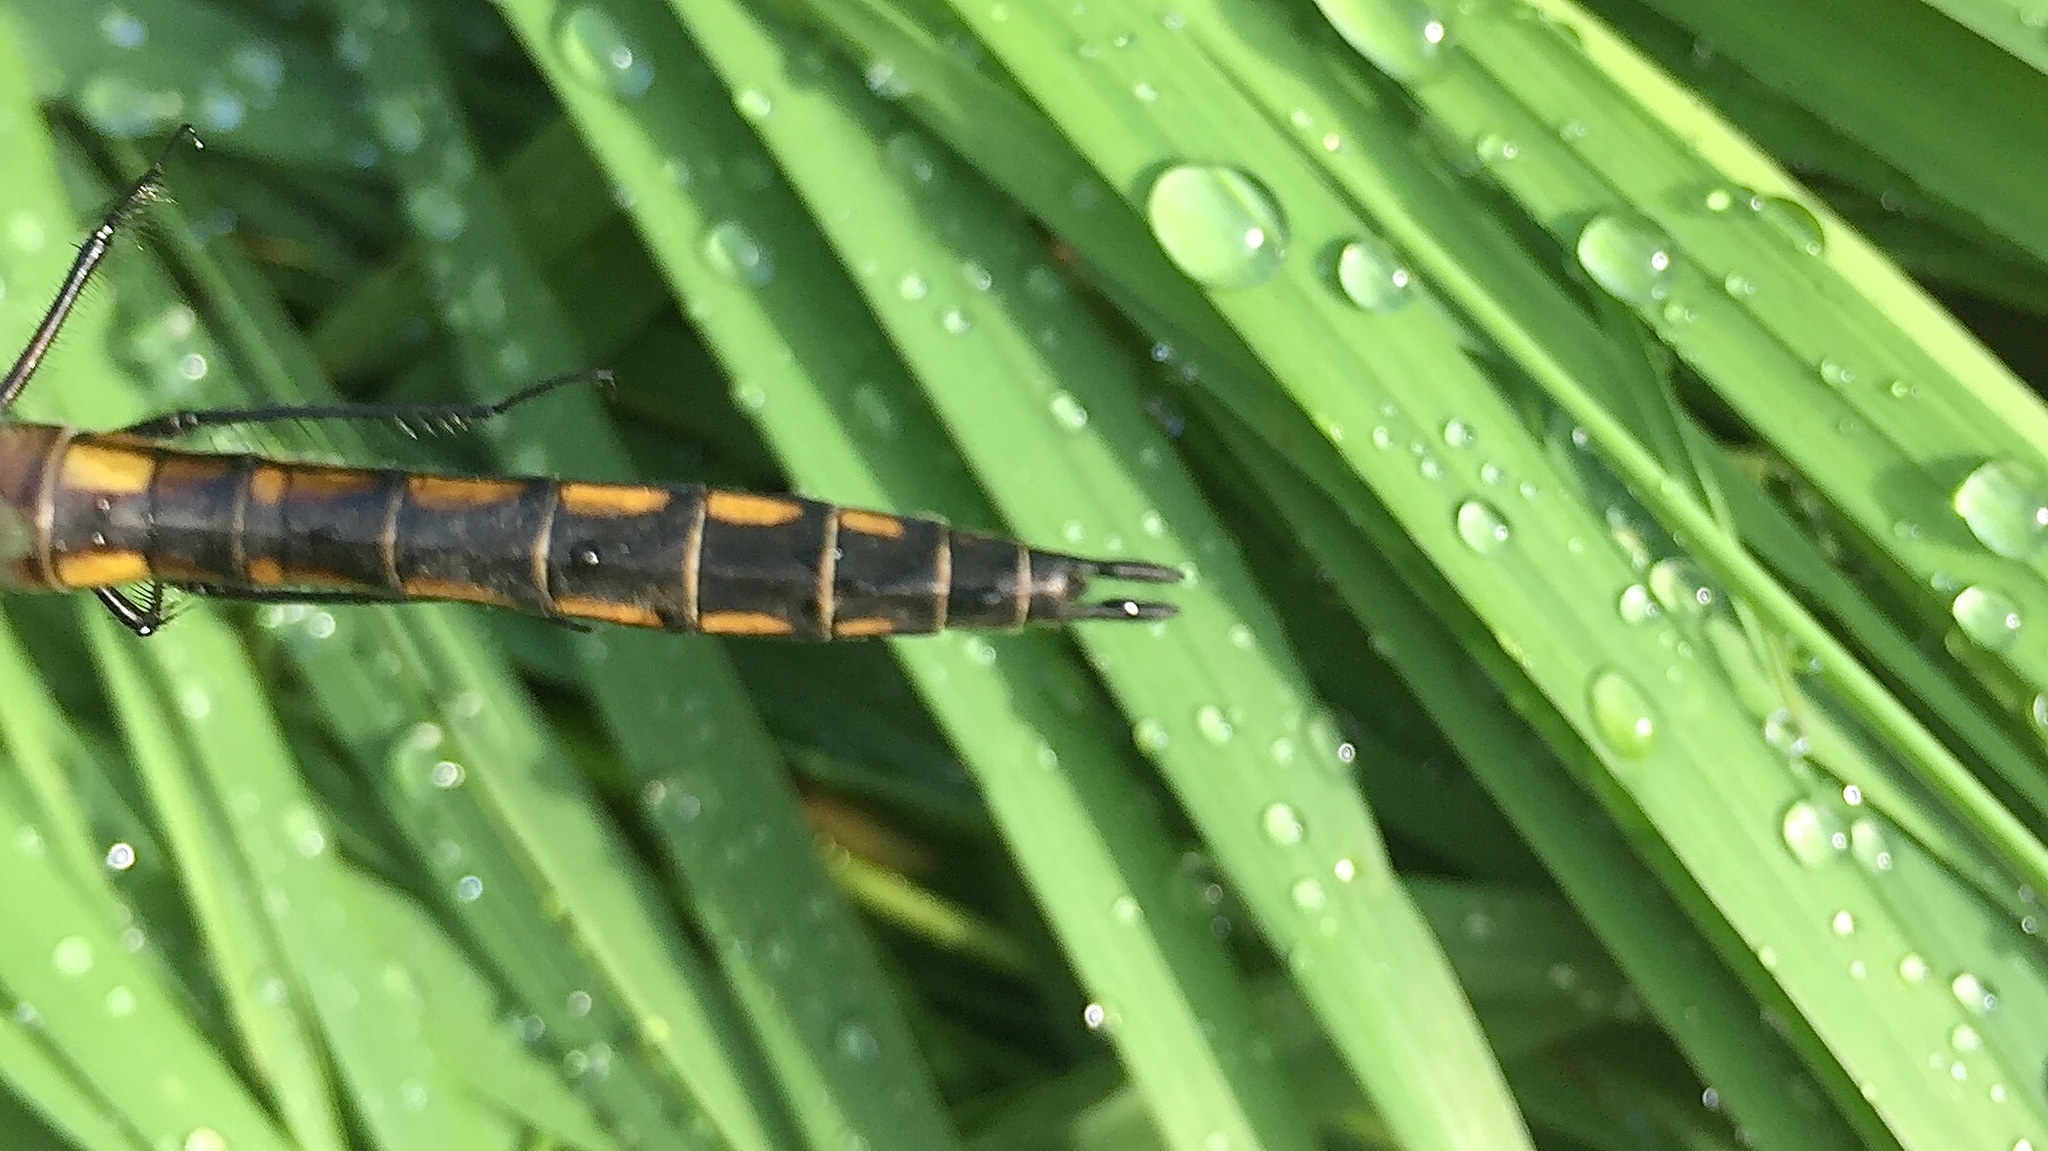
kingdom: Animalia
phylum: Arthropoda
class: Insecta
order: Odonata
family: Corduliidae
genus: Epitheca
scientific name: Epitheca spinigera
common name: Spiny baskettail
